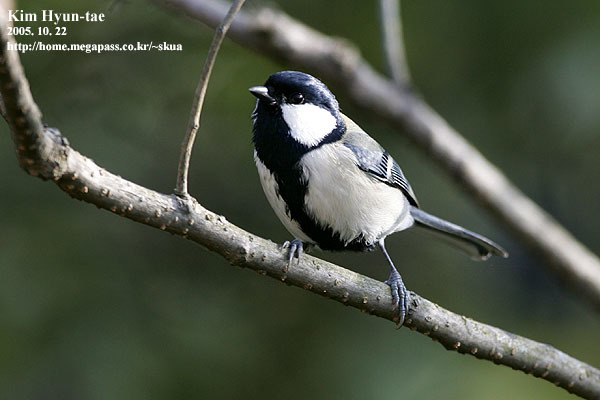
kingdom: Animalia
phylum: Chordata
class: Aves
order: Passeriformes
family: Paridae
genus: Parus
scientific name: Parus minor
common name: Japanese tit
